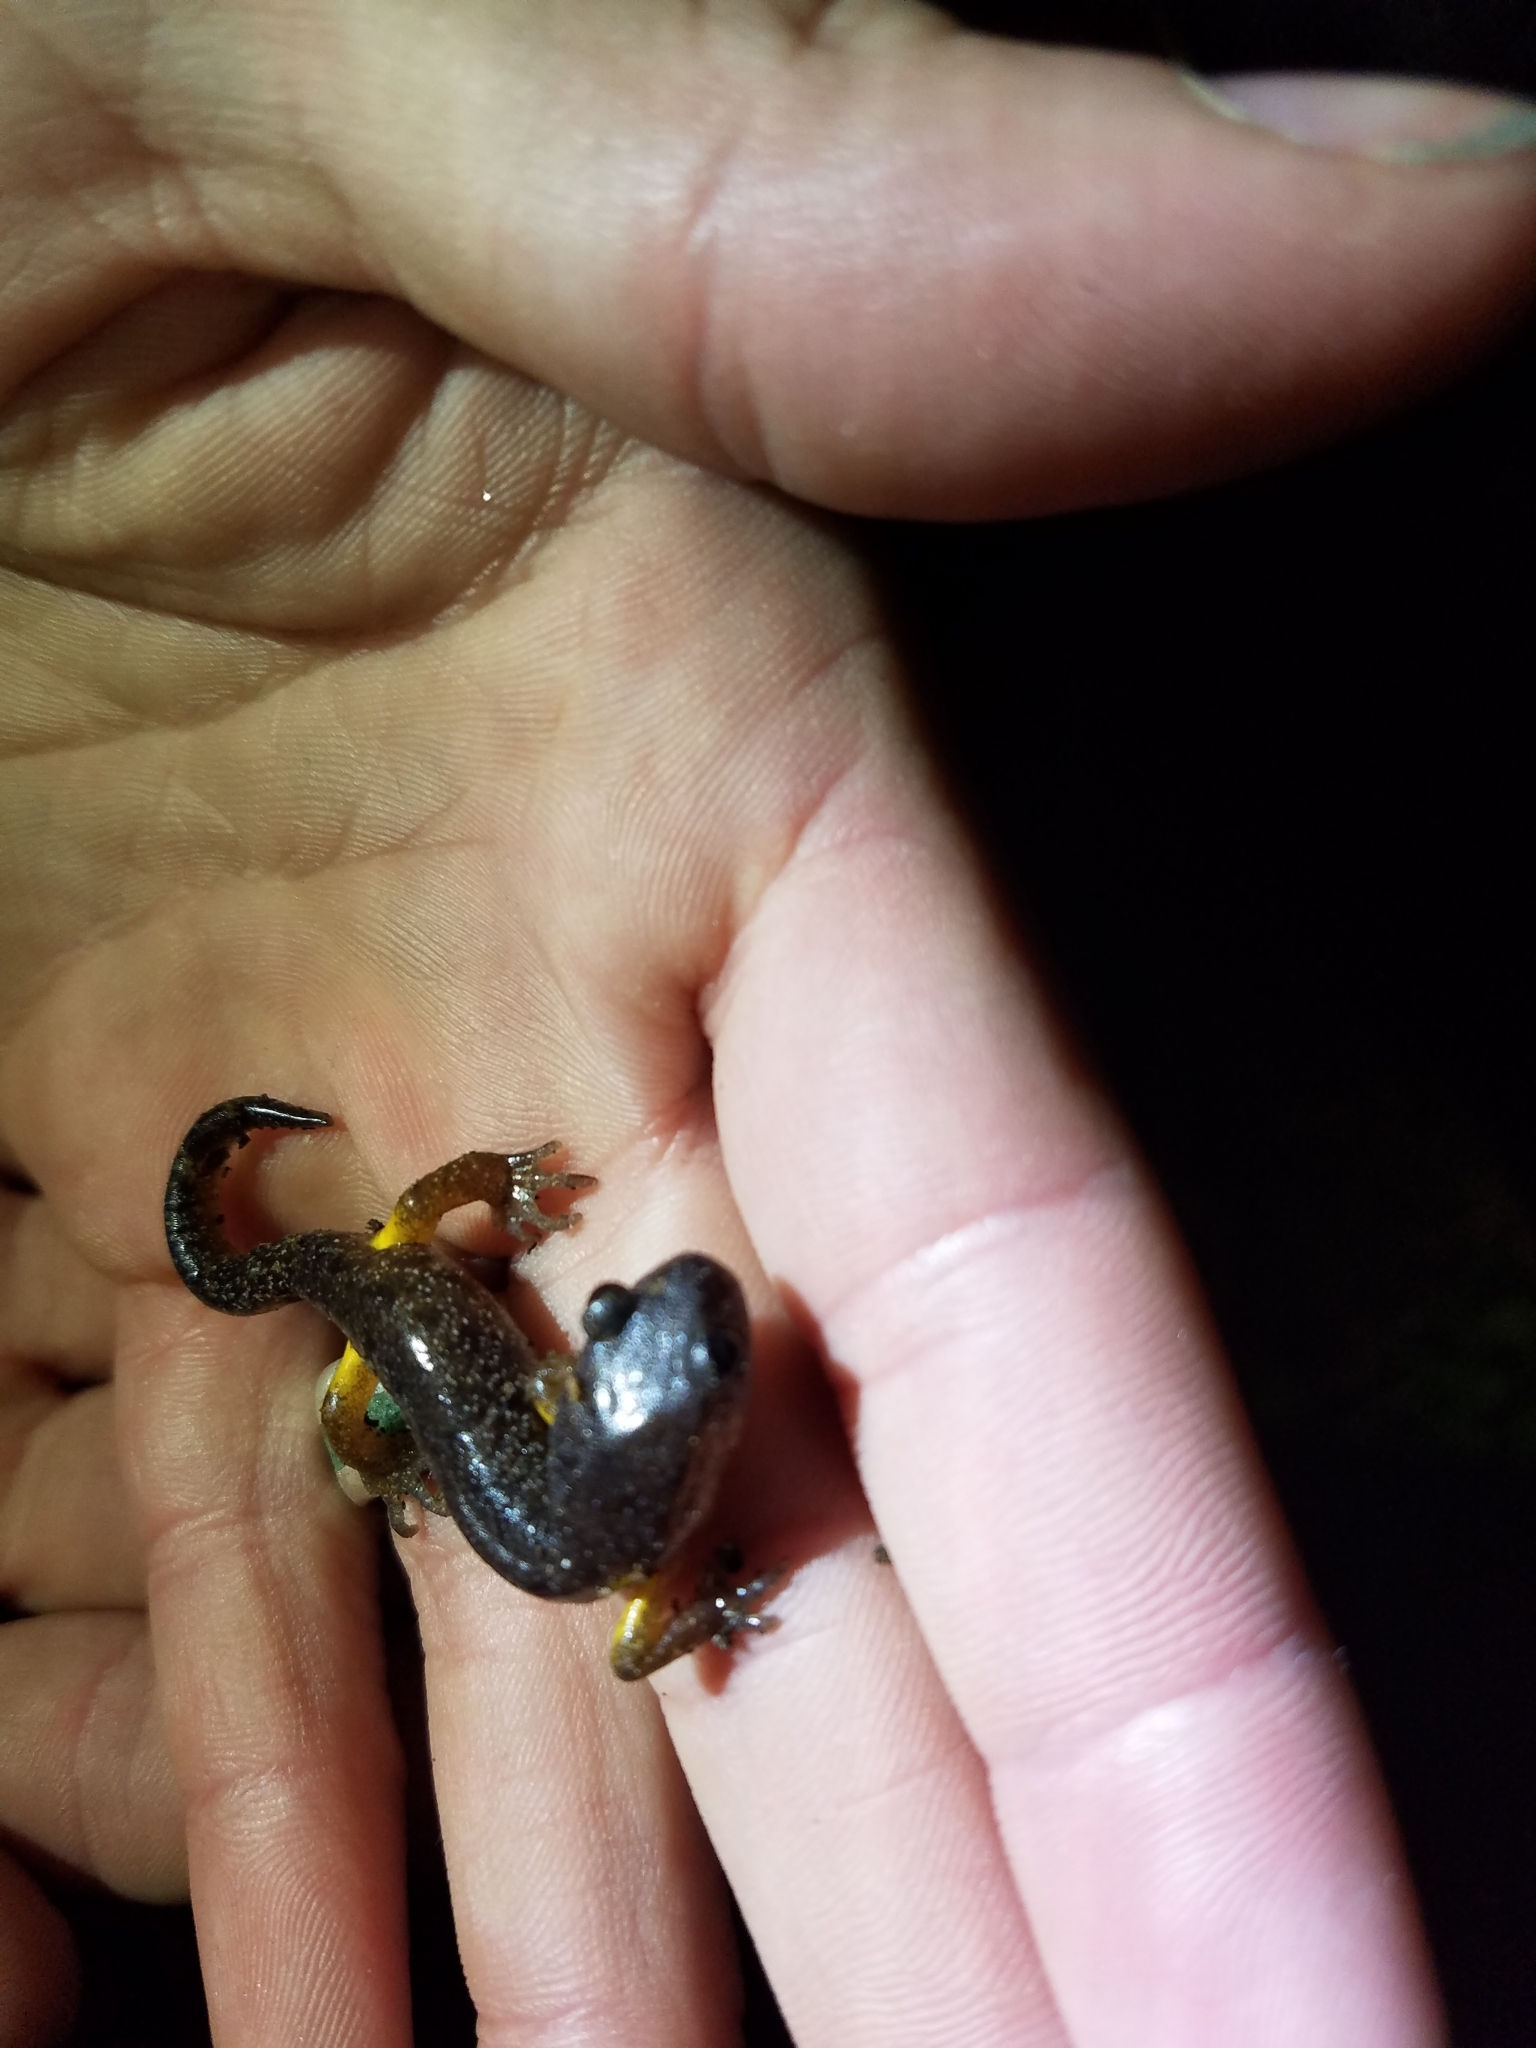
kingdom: Animalia
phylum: Chordata
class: Amphibia
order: Caudata
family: Plethodontidae
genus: Ensatina
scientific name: Ensatina eschscholtzii
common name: Ensatina
